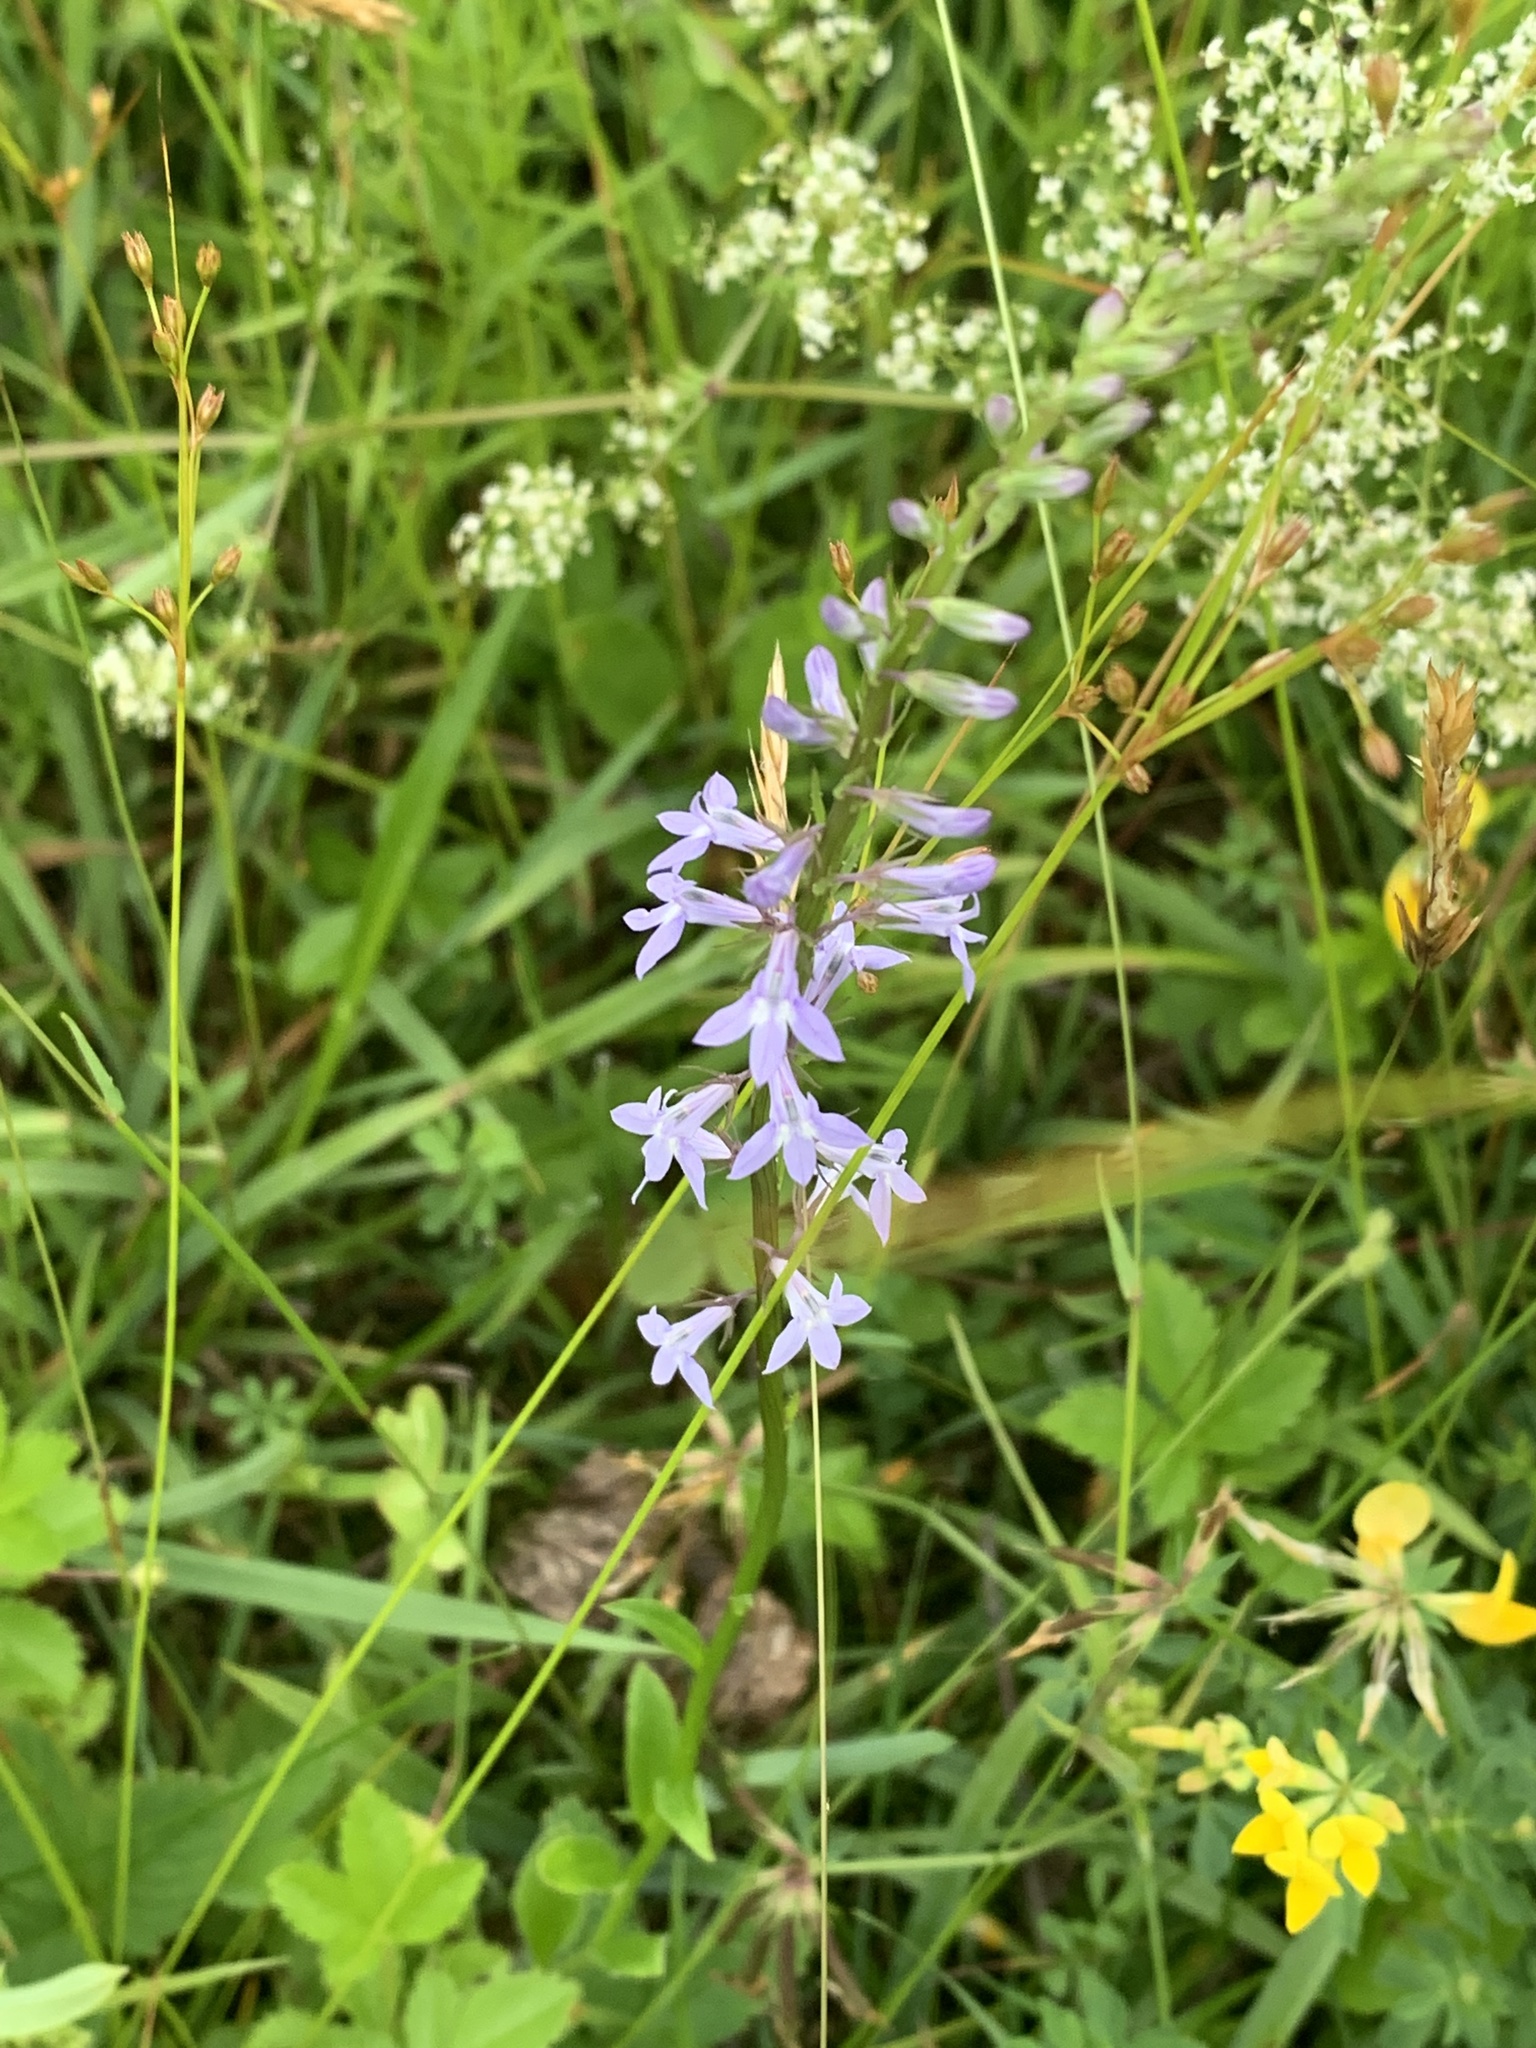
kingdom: Plantae
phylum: Tracheophyta
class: Magnoliopsida
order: Asterales
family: Campanulaceae
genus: Lobelia
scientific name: Lobelia spicata
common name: Pale-spike lobelia
